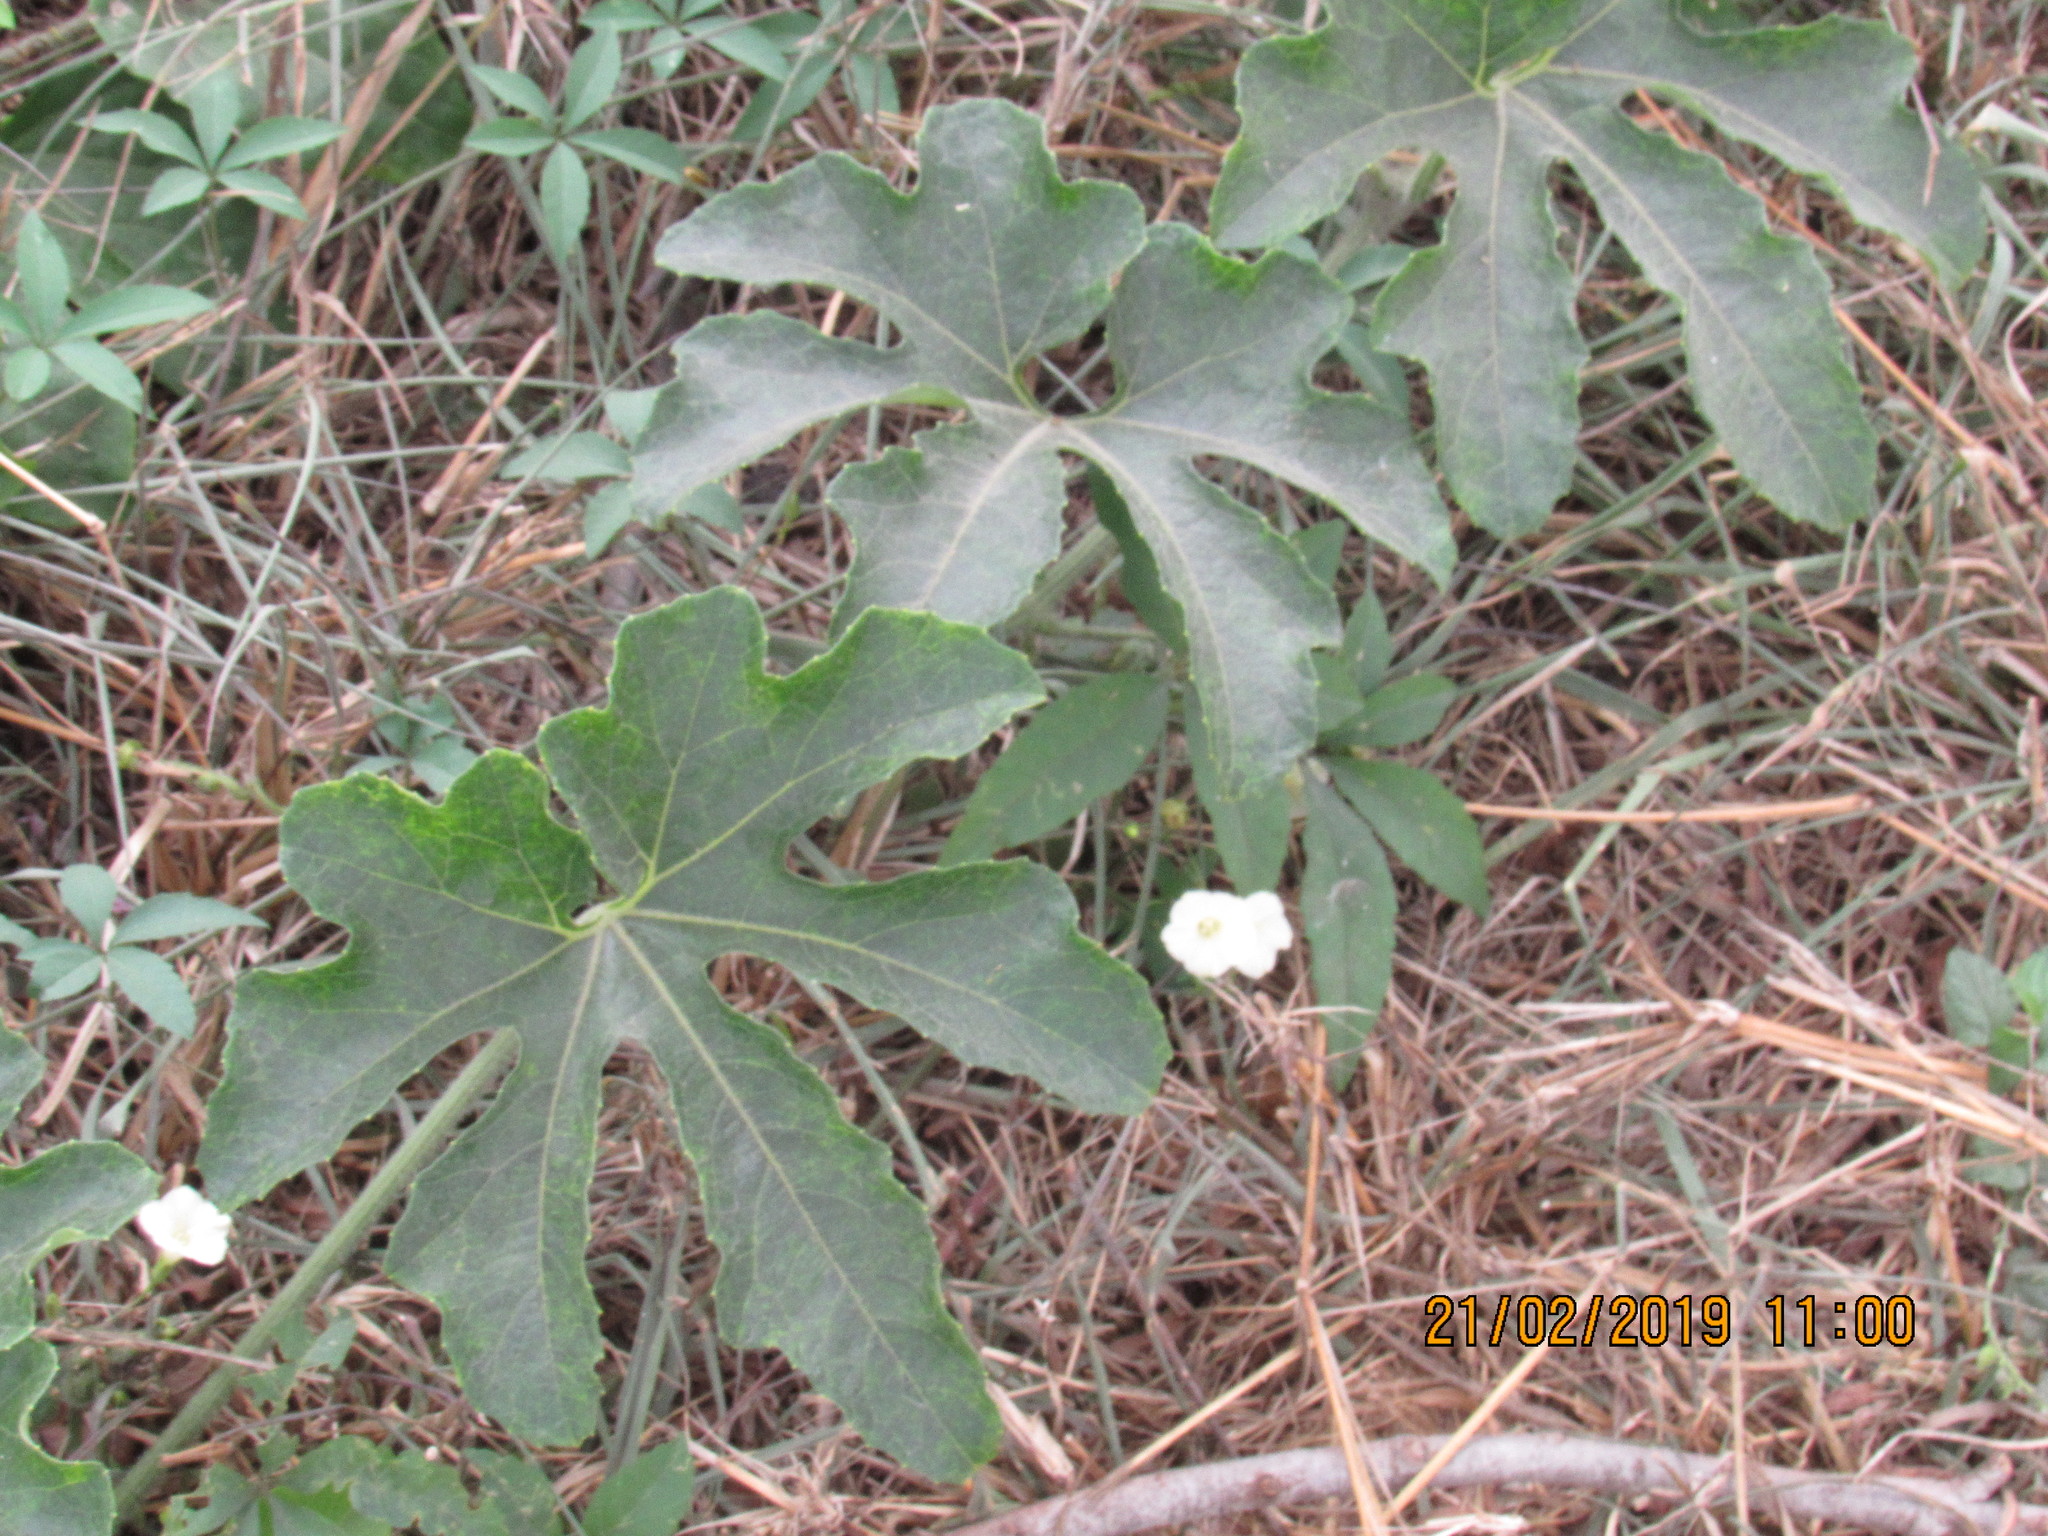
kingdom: Plantae
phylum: Tracheophyta
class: Magnoliopsida
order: Cucurbitales
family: Cucurbitaceae
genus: Cayaponia
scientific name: Cayaponia attenuata
